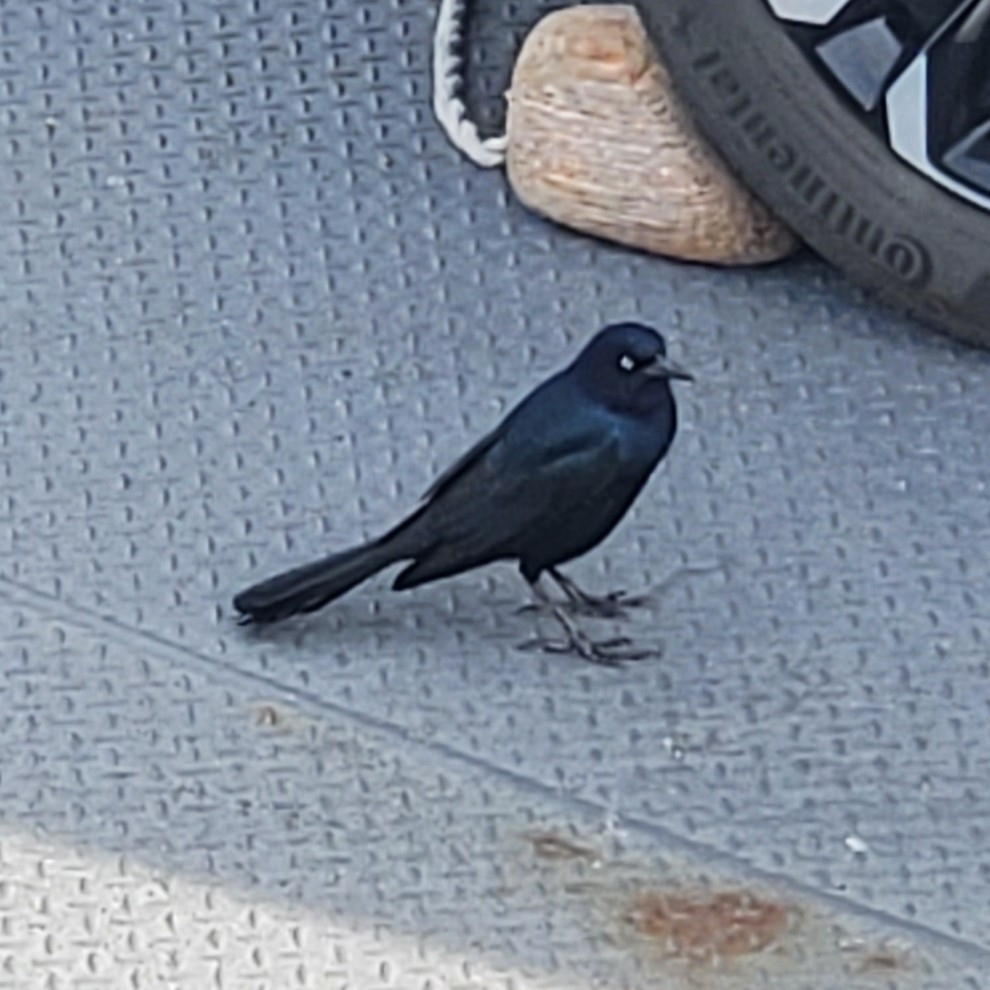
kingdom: Animalia
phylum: Chordata
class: Aves
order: Passeriformes
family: Icteridae
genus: Quiscalus
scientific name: Quiscalus major
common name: Boat-tailed grackle
